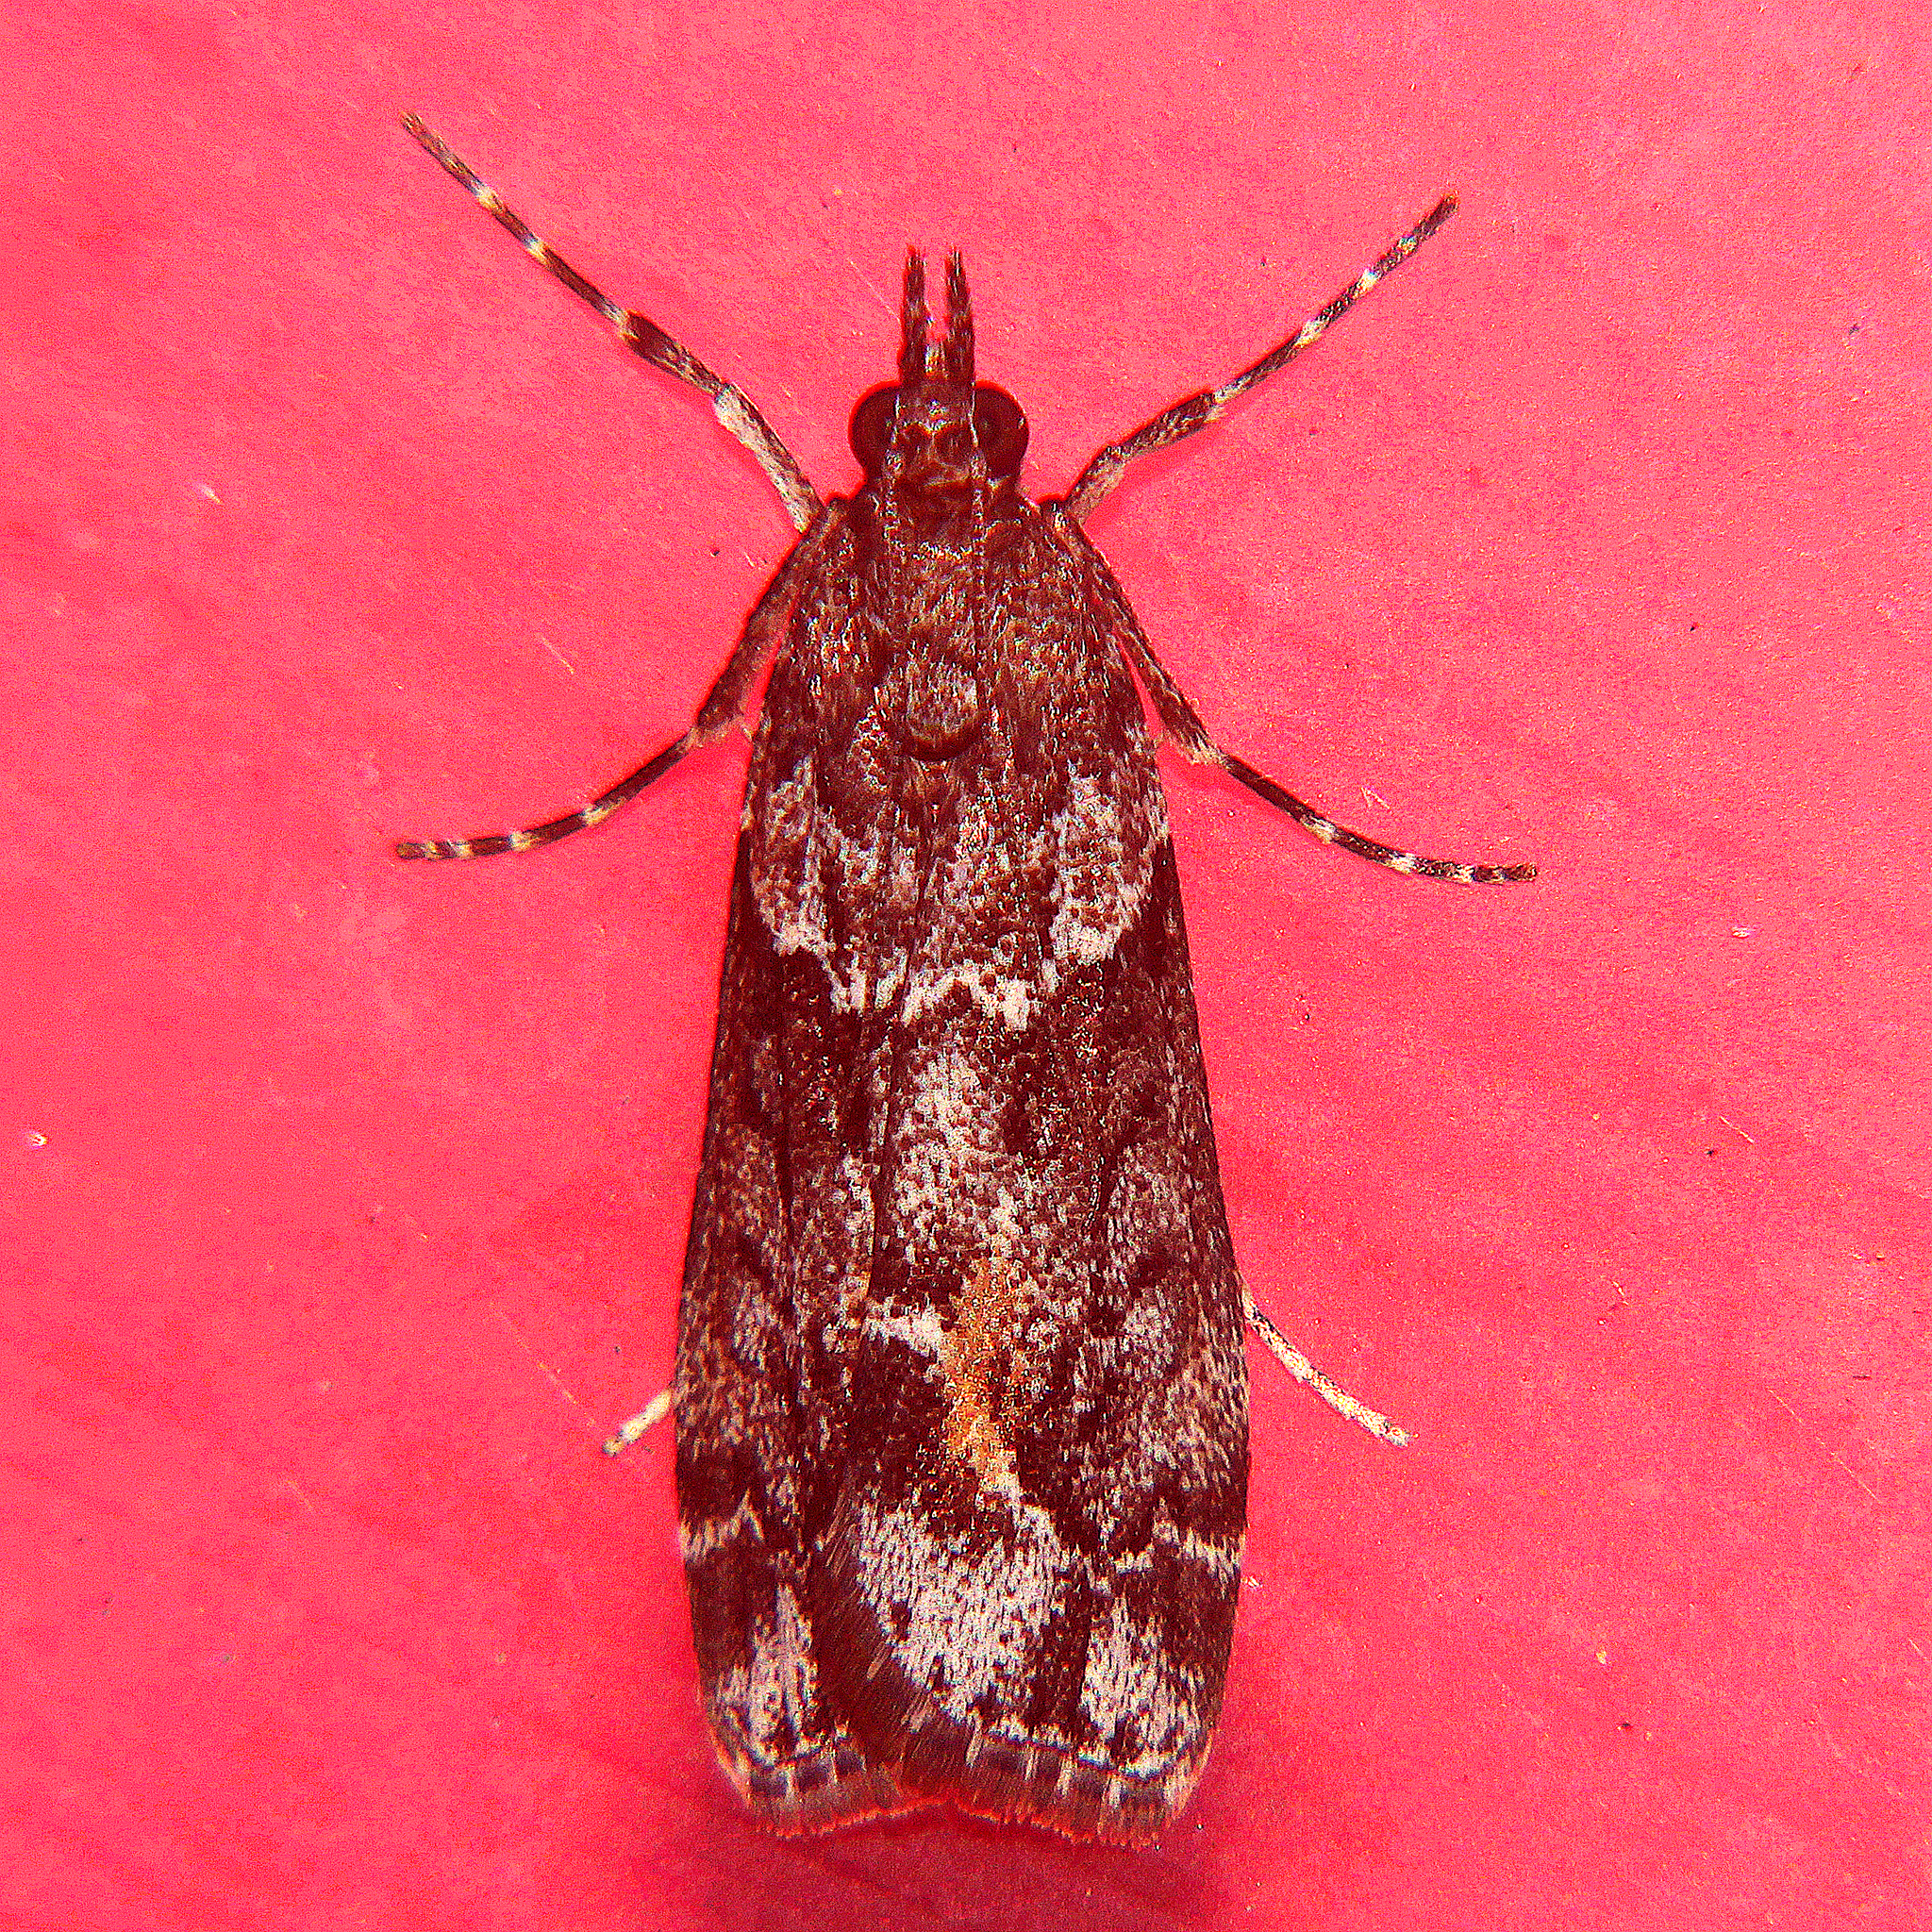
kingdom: Animalia
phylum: Arthropoda
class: Insecta
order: Lepidoptera
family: Crambidae
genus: Eudonia
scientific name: Eudonia submarginalis
